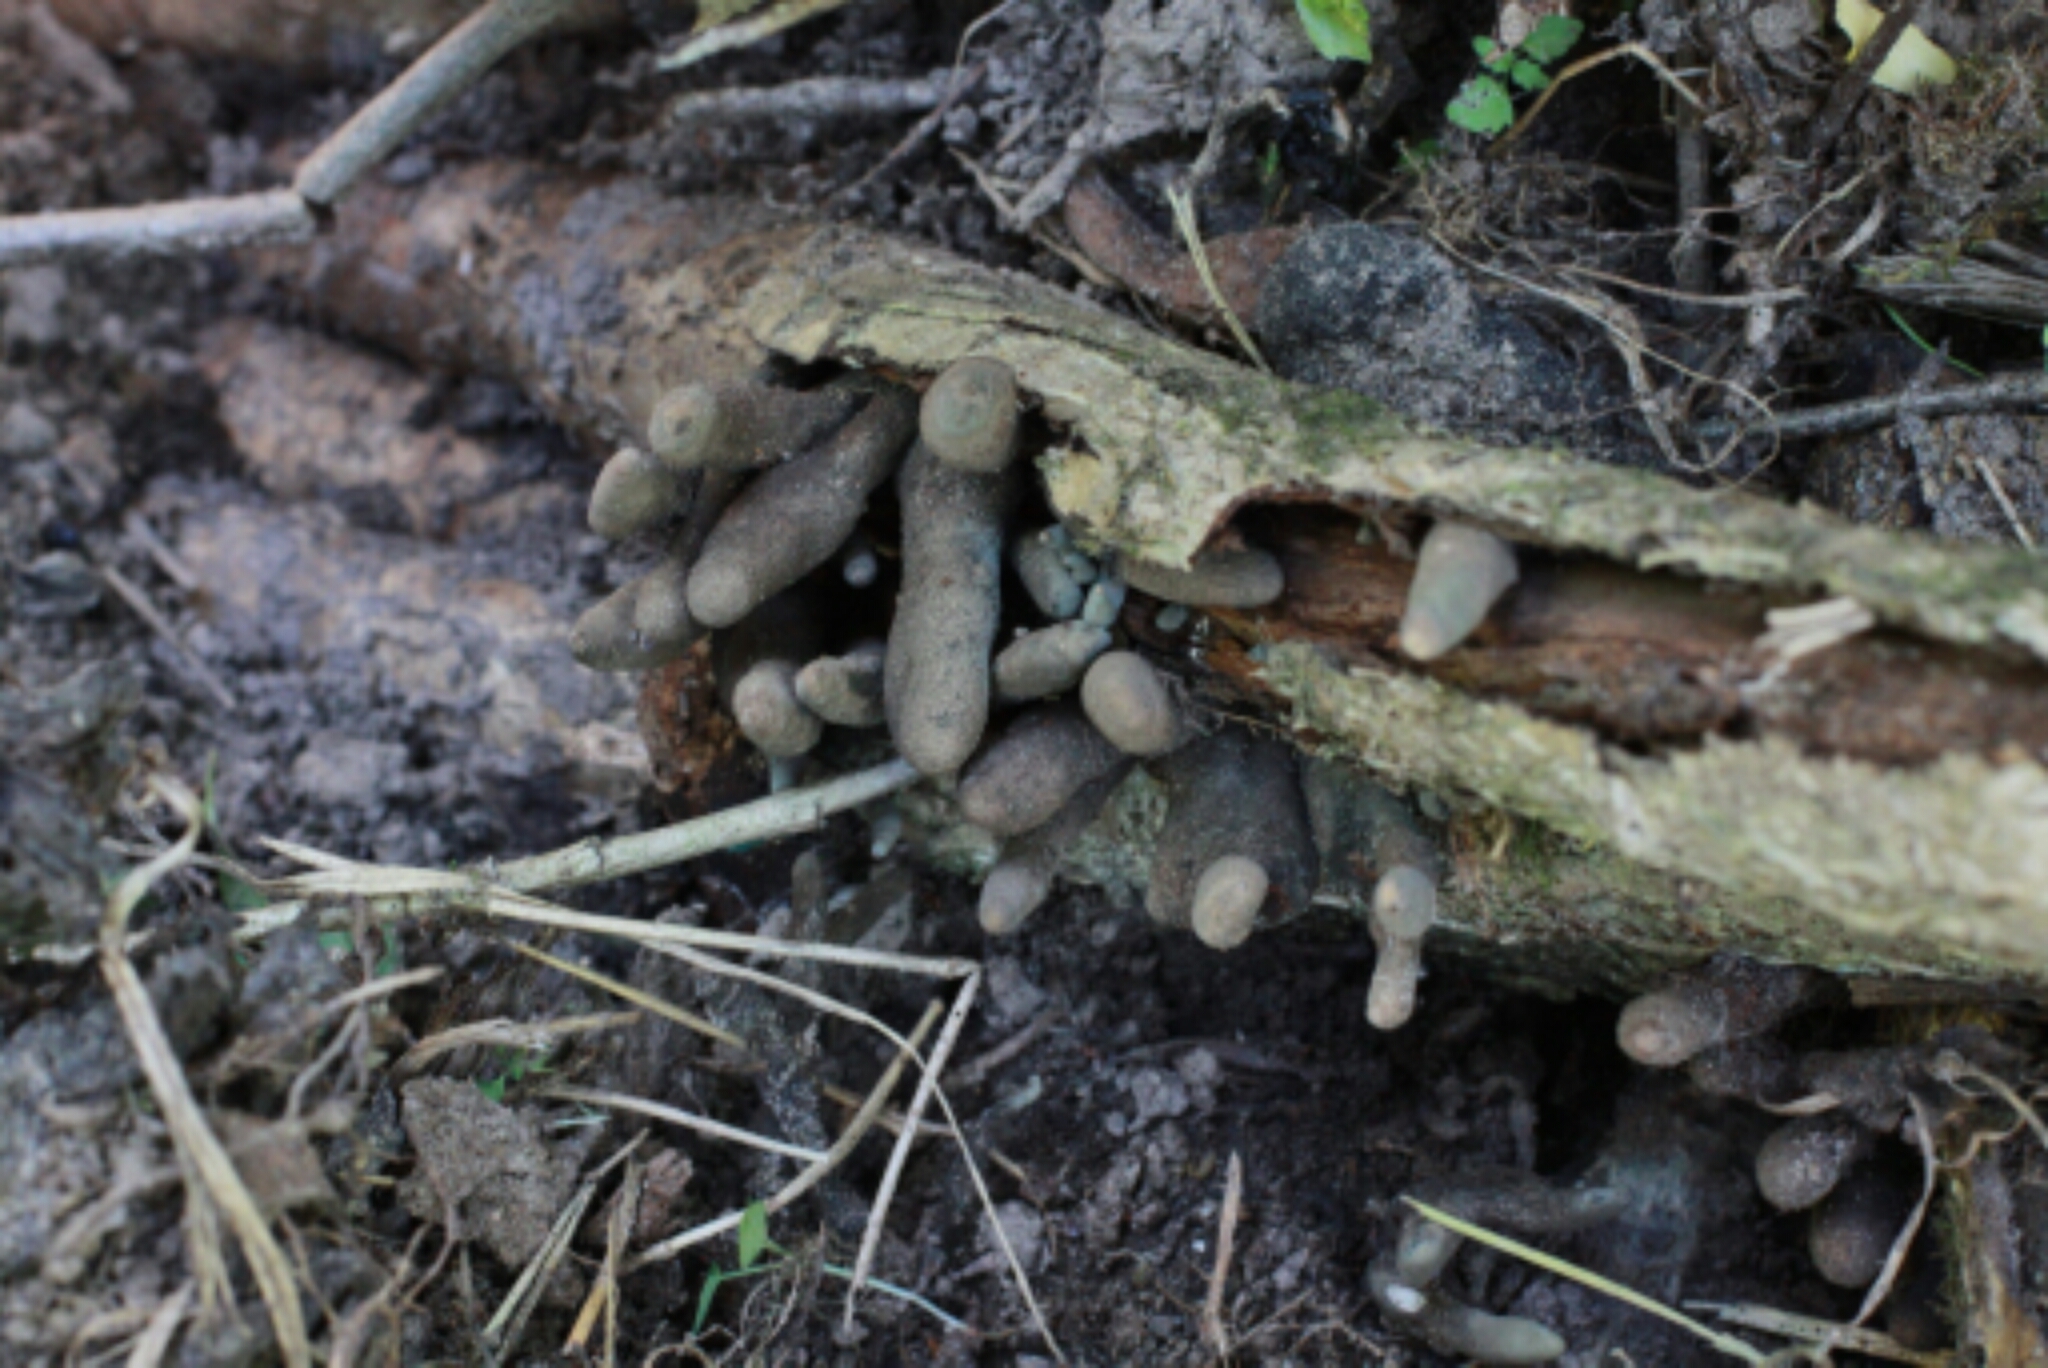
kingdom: Fungi
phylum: Ascomycota
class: Sordariomycetes
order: Xylariales
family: Xylariaceae
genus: Xylaria
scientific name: Xylaria polymorpha
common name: Dead man's fingers
